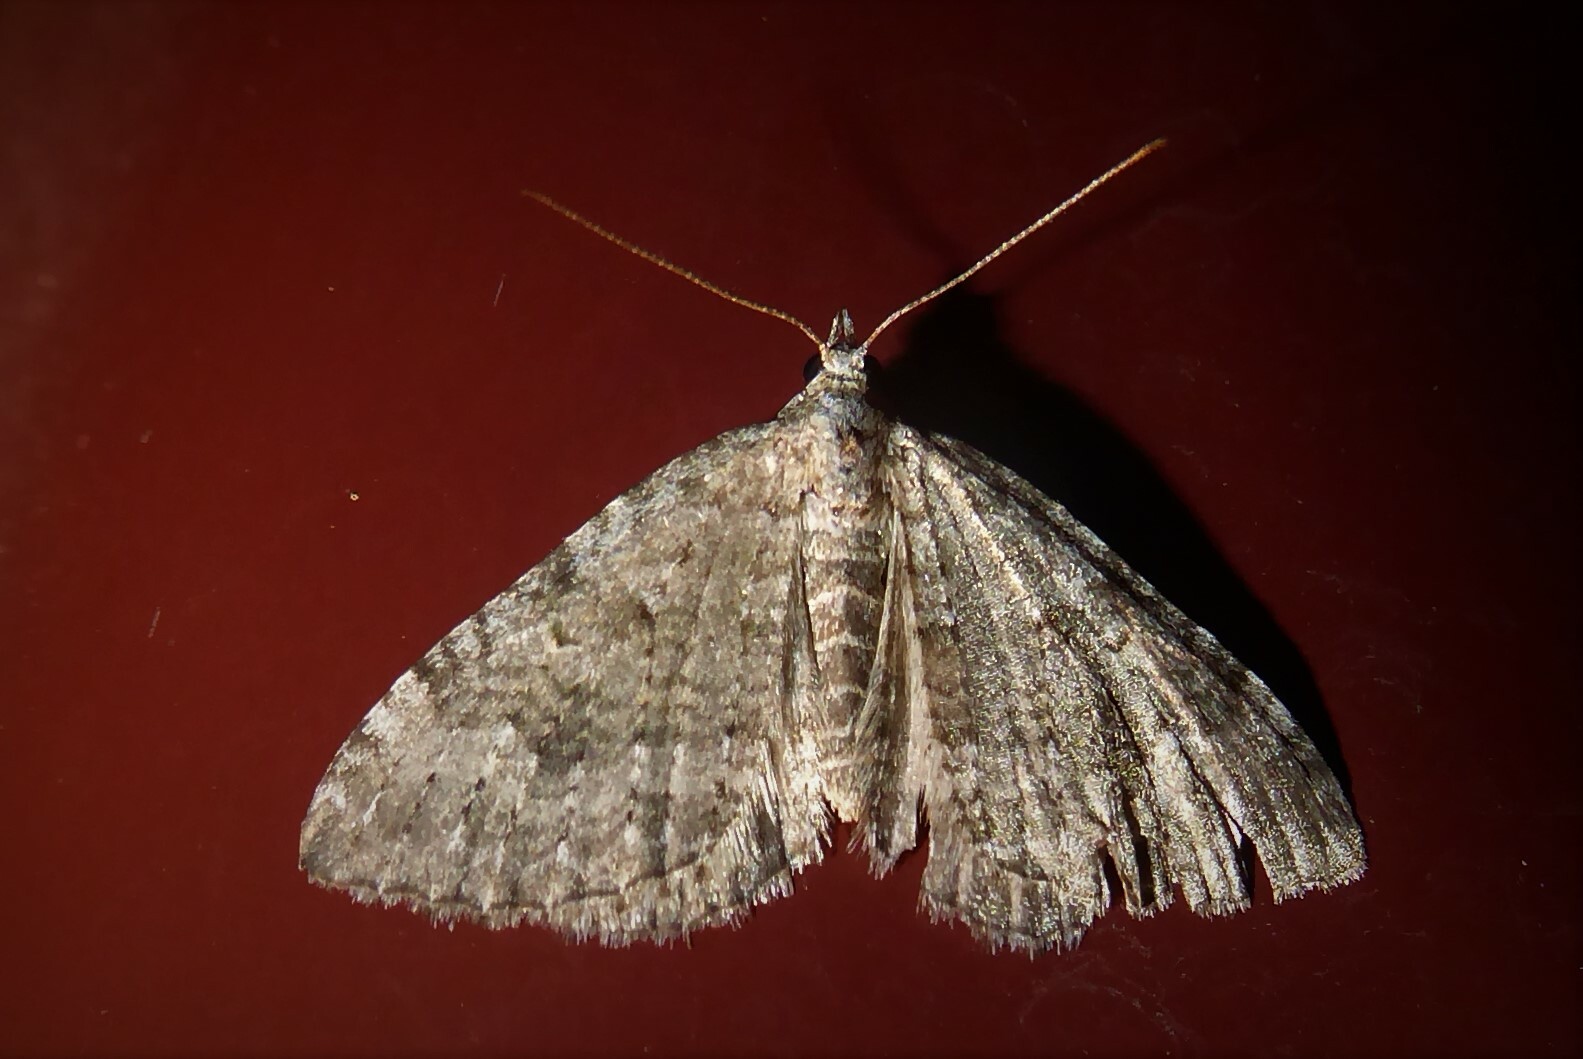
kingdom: Animalia
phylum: Arthropoda
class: Insecta
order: Lepidoptera
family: Geometridae
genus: Helastia
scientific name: Helastia corcularia
